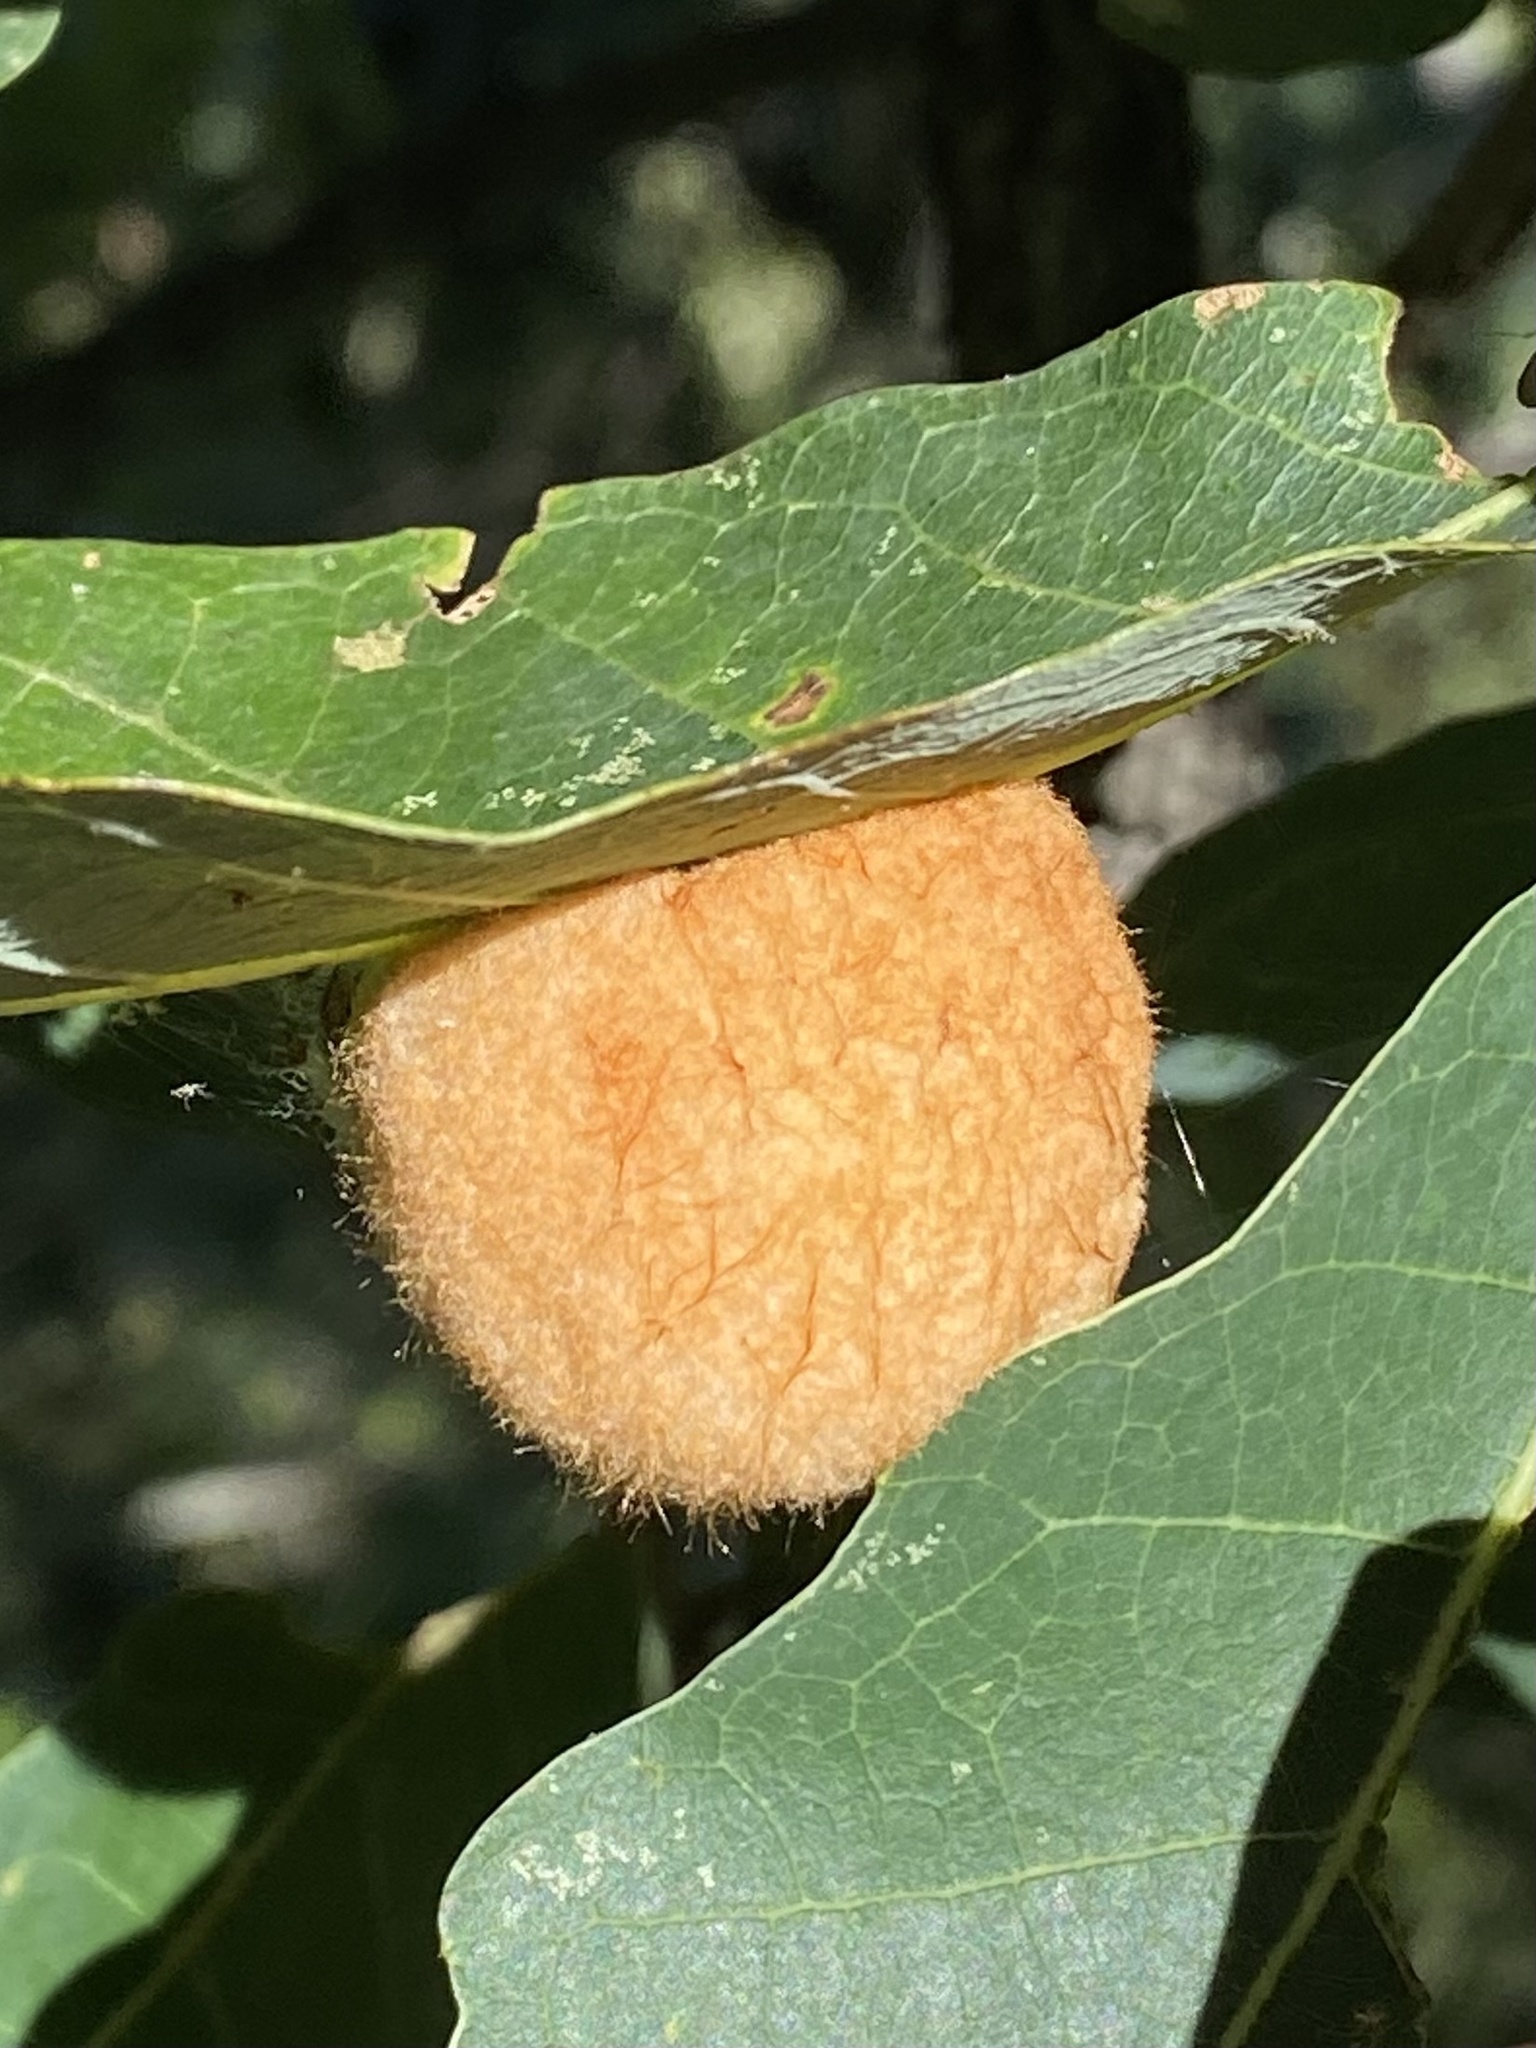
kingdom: Animalia
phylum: Arthropoda
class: Insecta
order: Hymenoptera
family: Cynipidae
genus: Striatoandricus
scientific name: Striatoandricus
